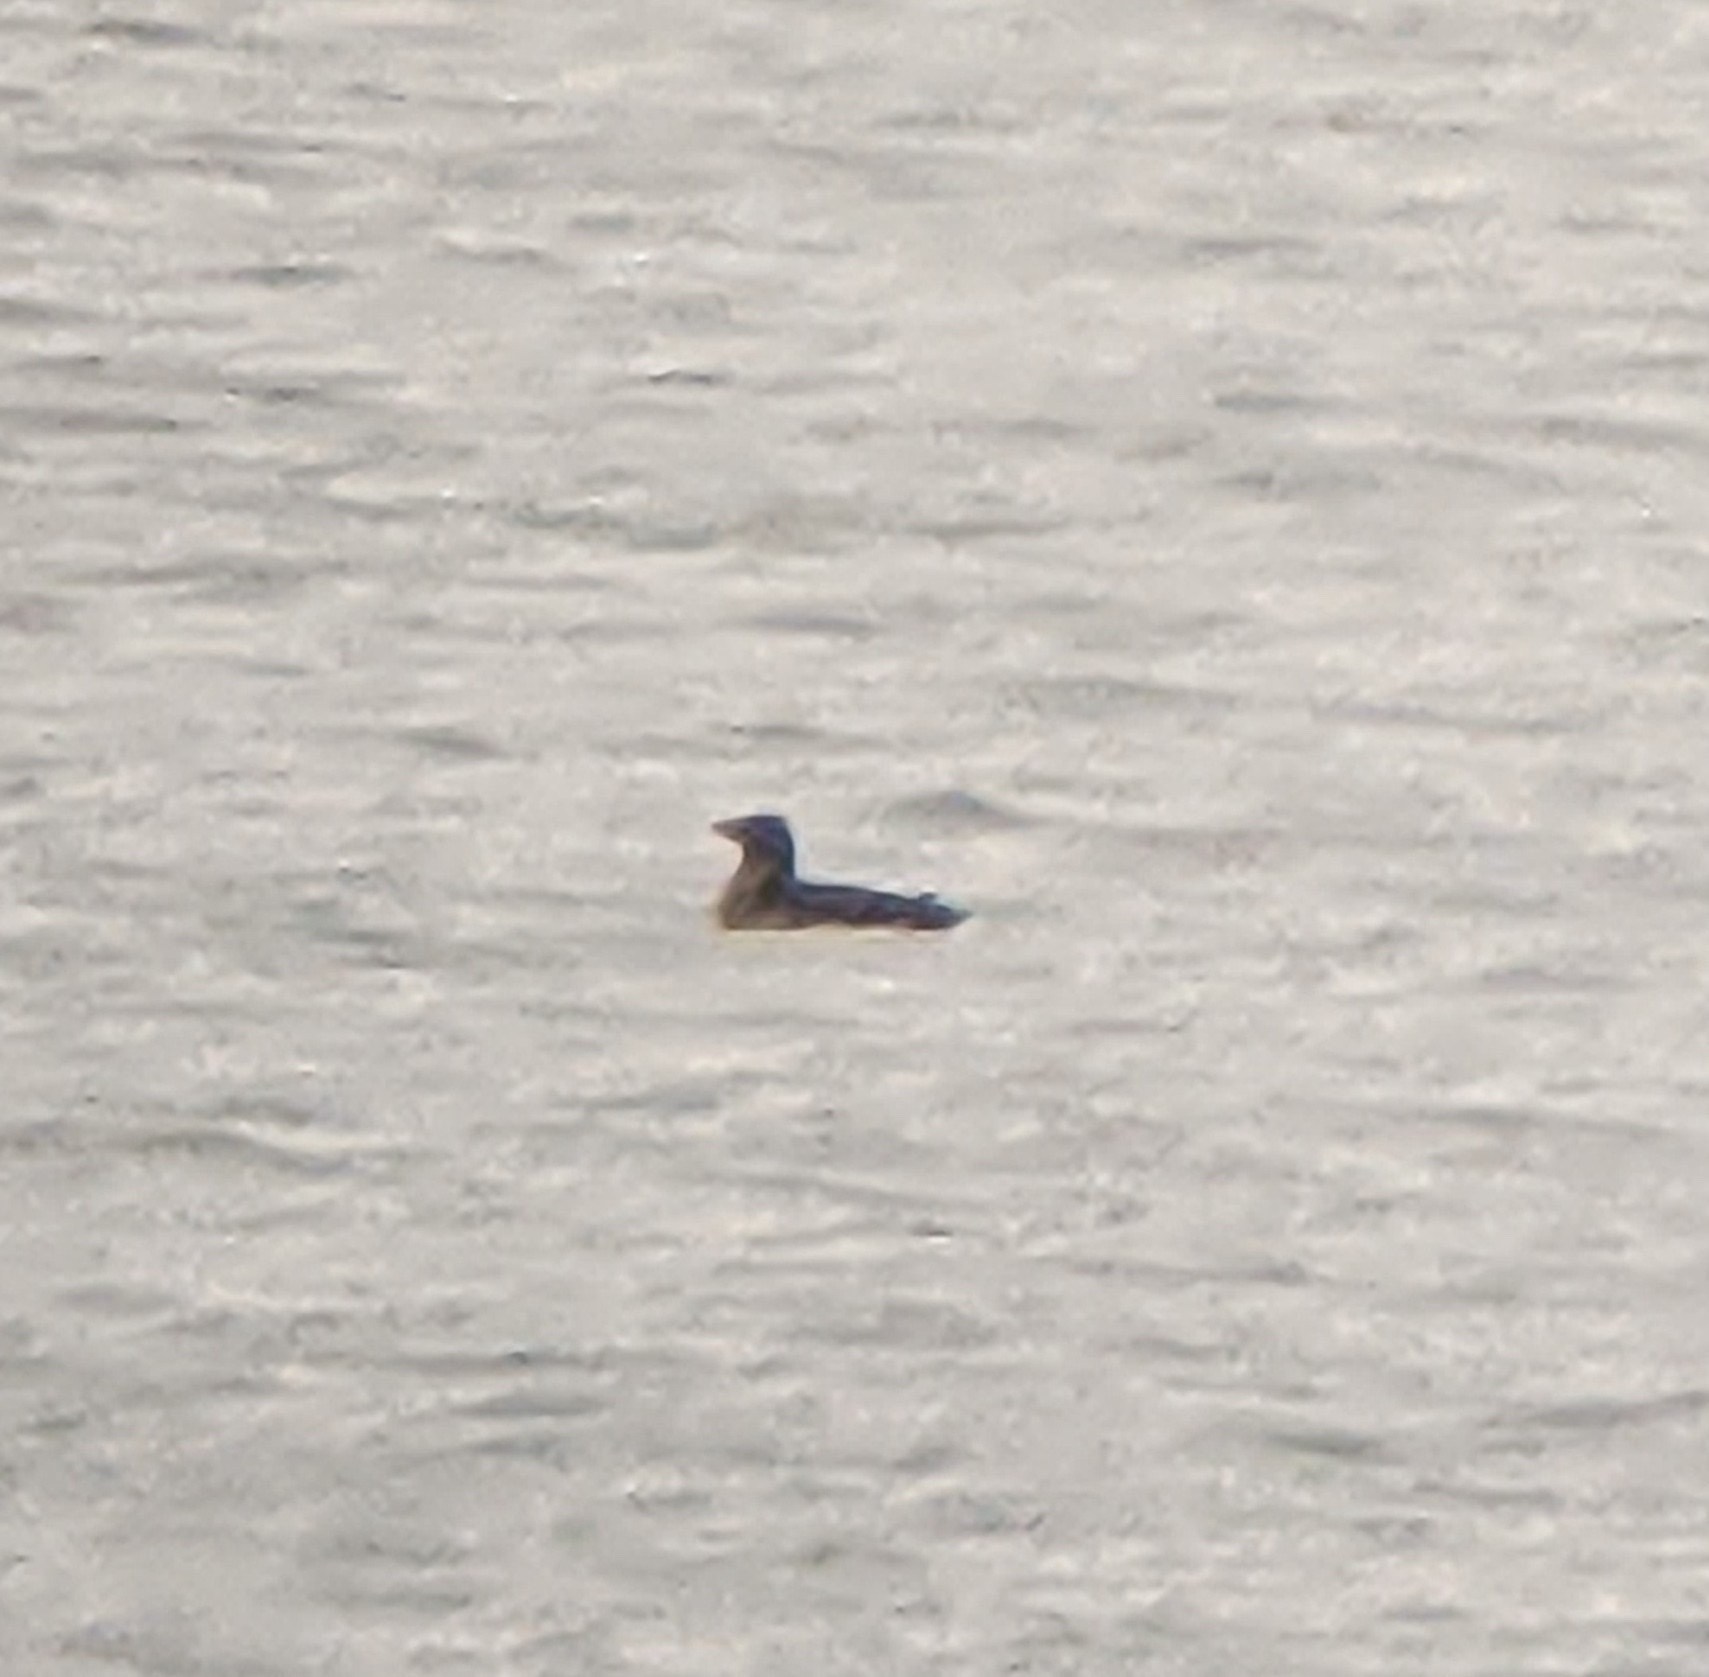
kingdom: Animalia
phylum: Chordata
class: Aves
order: Charadriiformes
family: Alcidae
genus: Cerorhinca
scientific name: Cerorhinca monocerata
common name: Rhinoceros auklet
